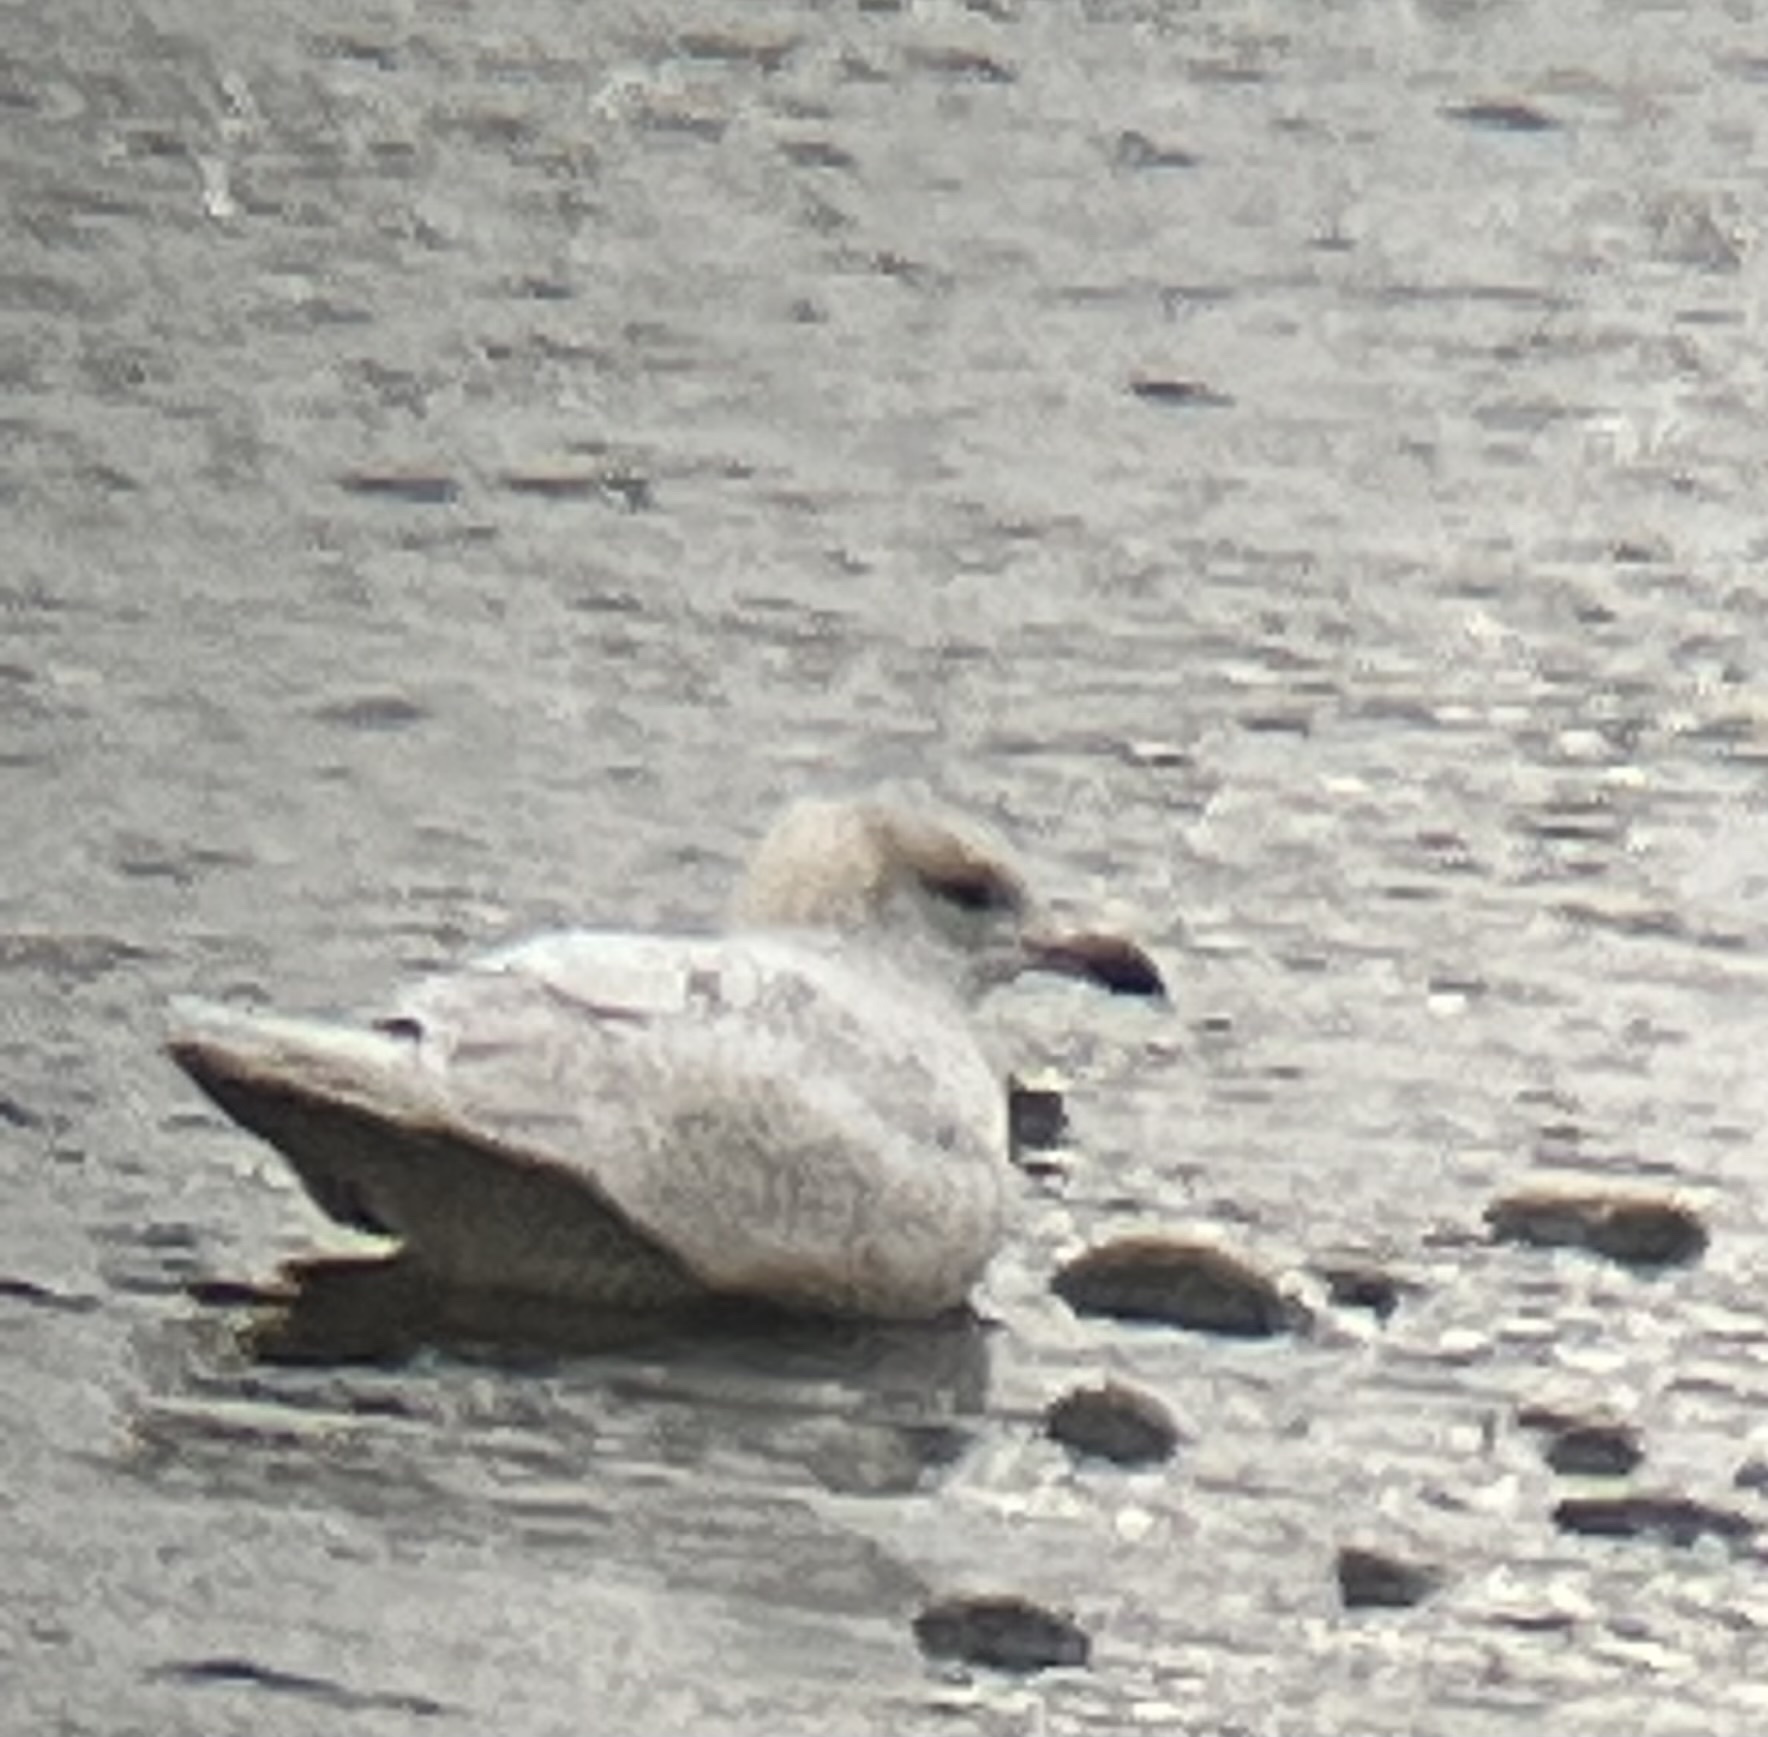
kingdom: Animalia
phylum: Chordata
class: Aves
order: Charadriiformes
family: Laridae
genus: Larus
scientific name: Larus glaucoides
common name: Iceland gull
